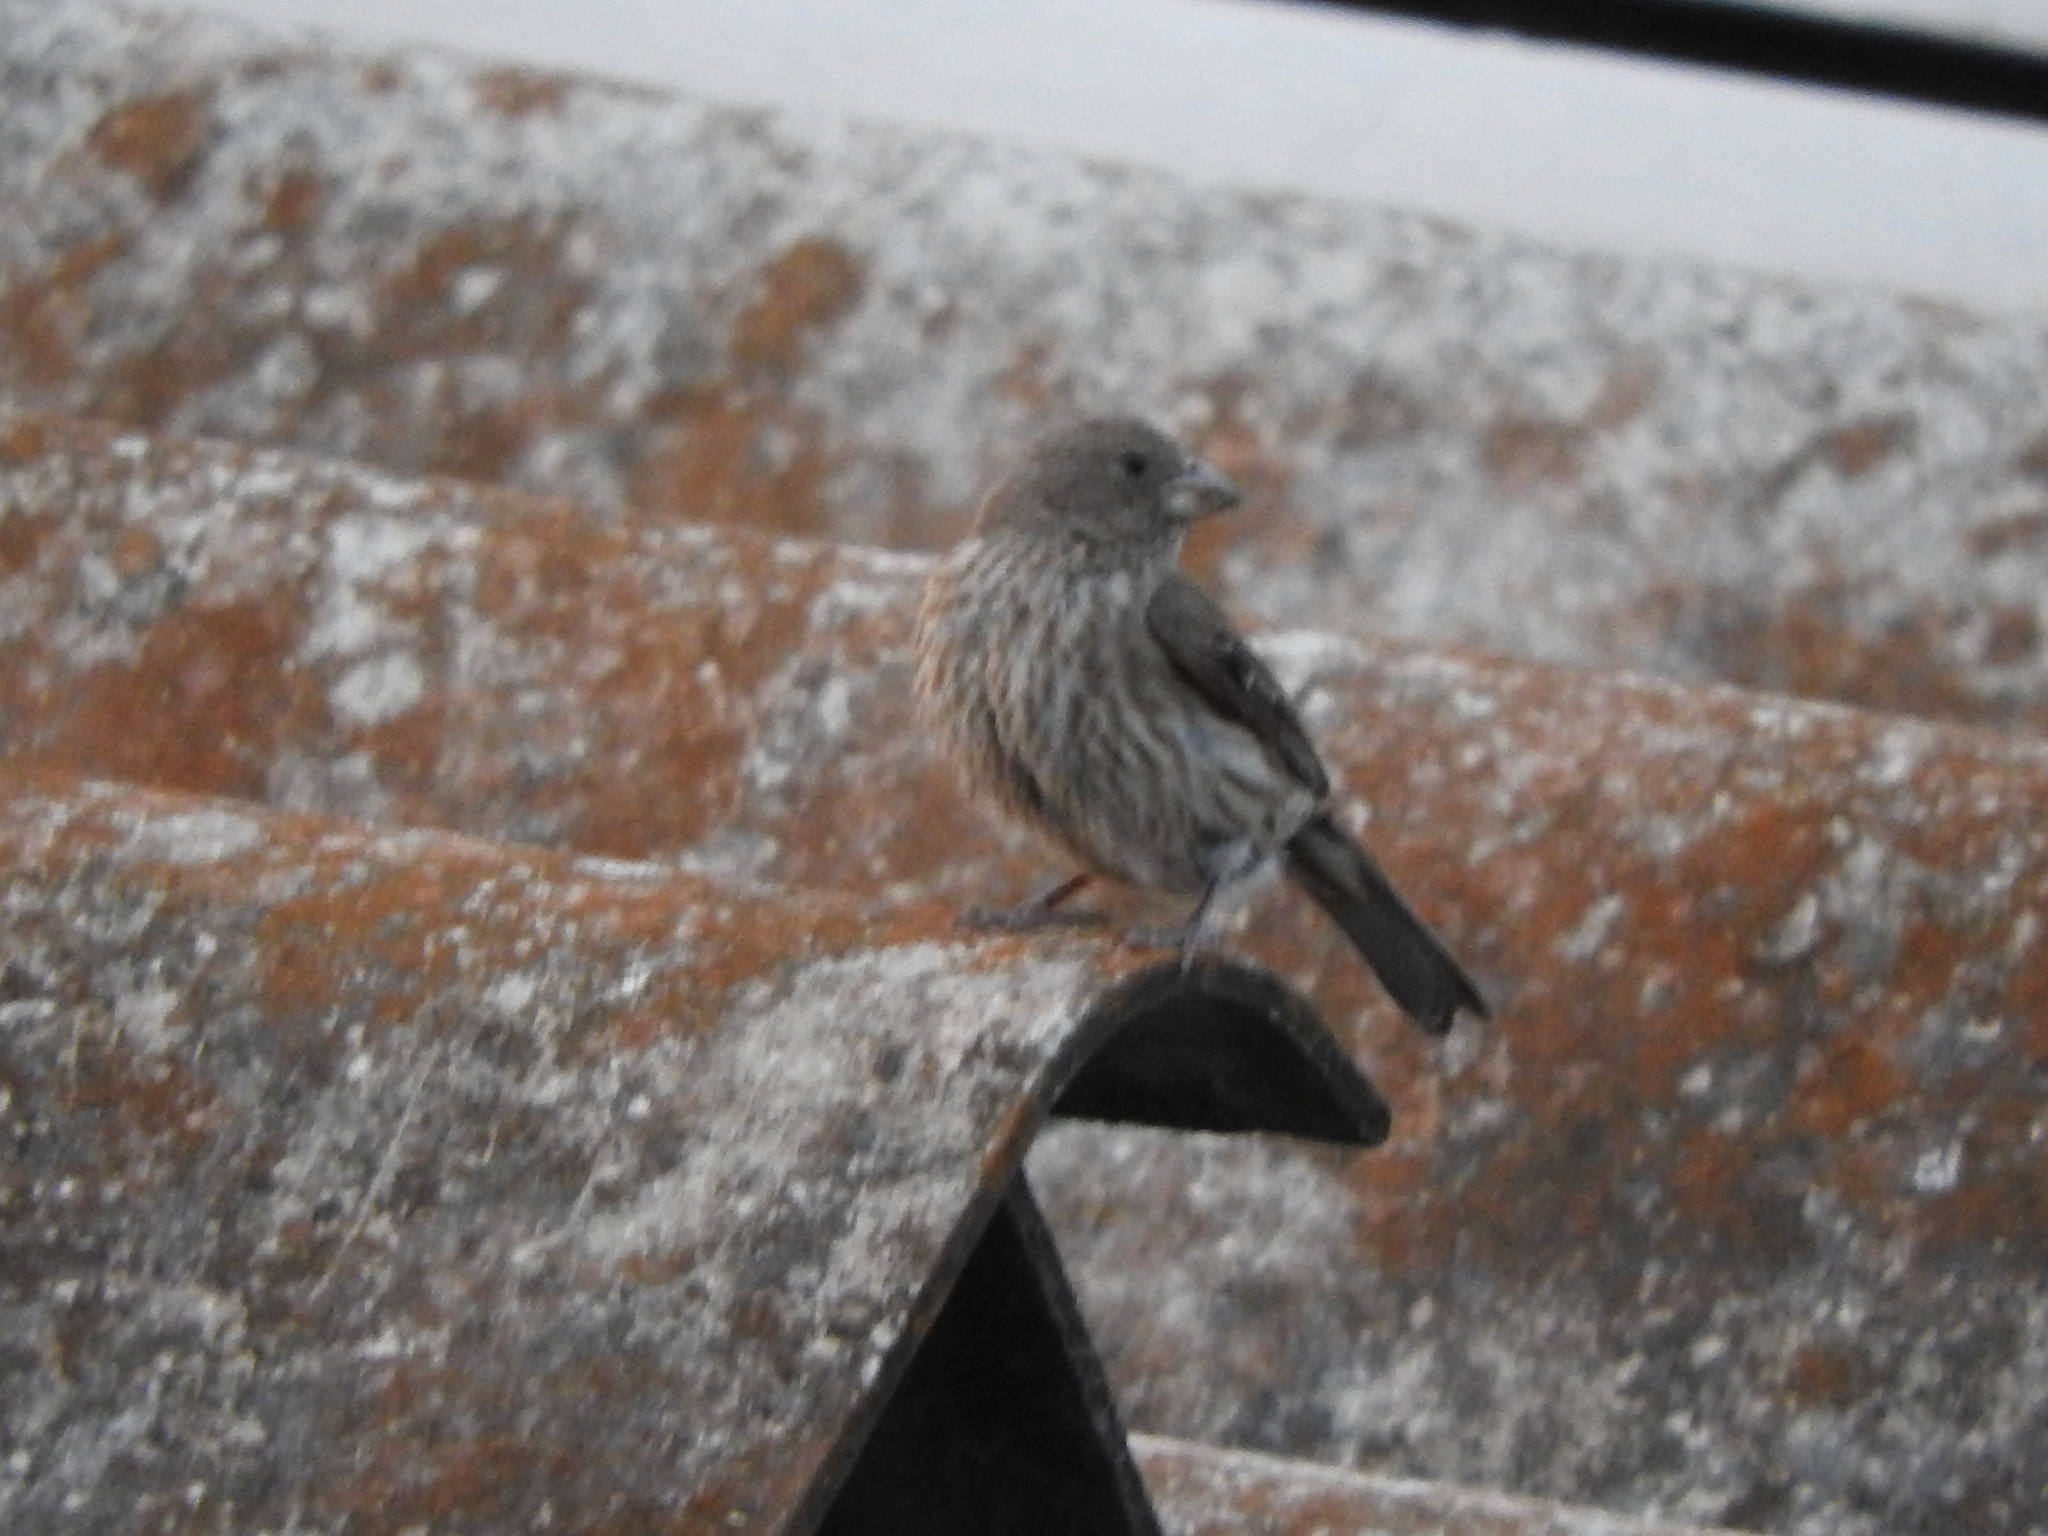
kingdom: Animalia
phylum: Chordata
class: Aves
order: Passeriformes
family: Fringillidae
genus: Haemorhous
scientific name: Haemorhous mexicanus
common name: House finch
